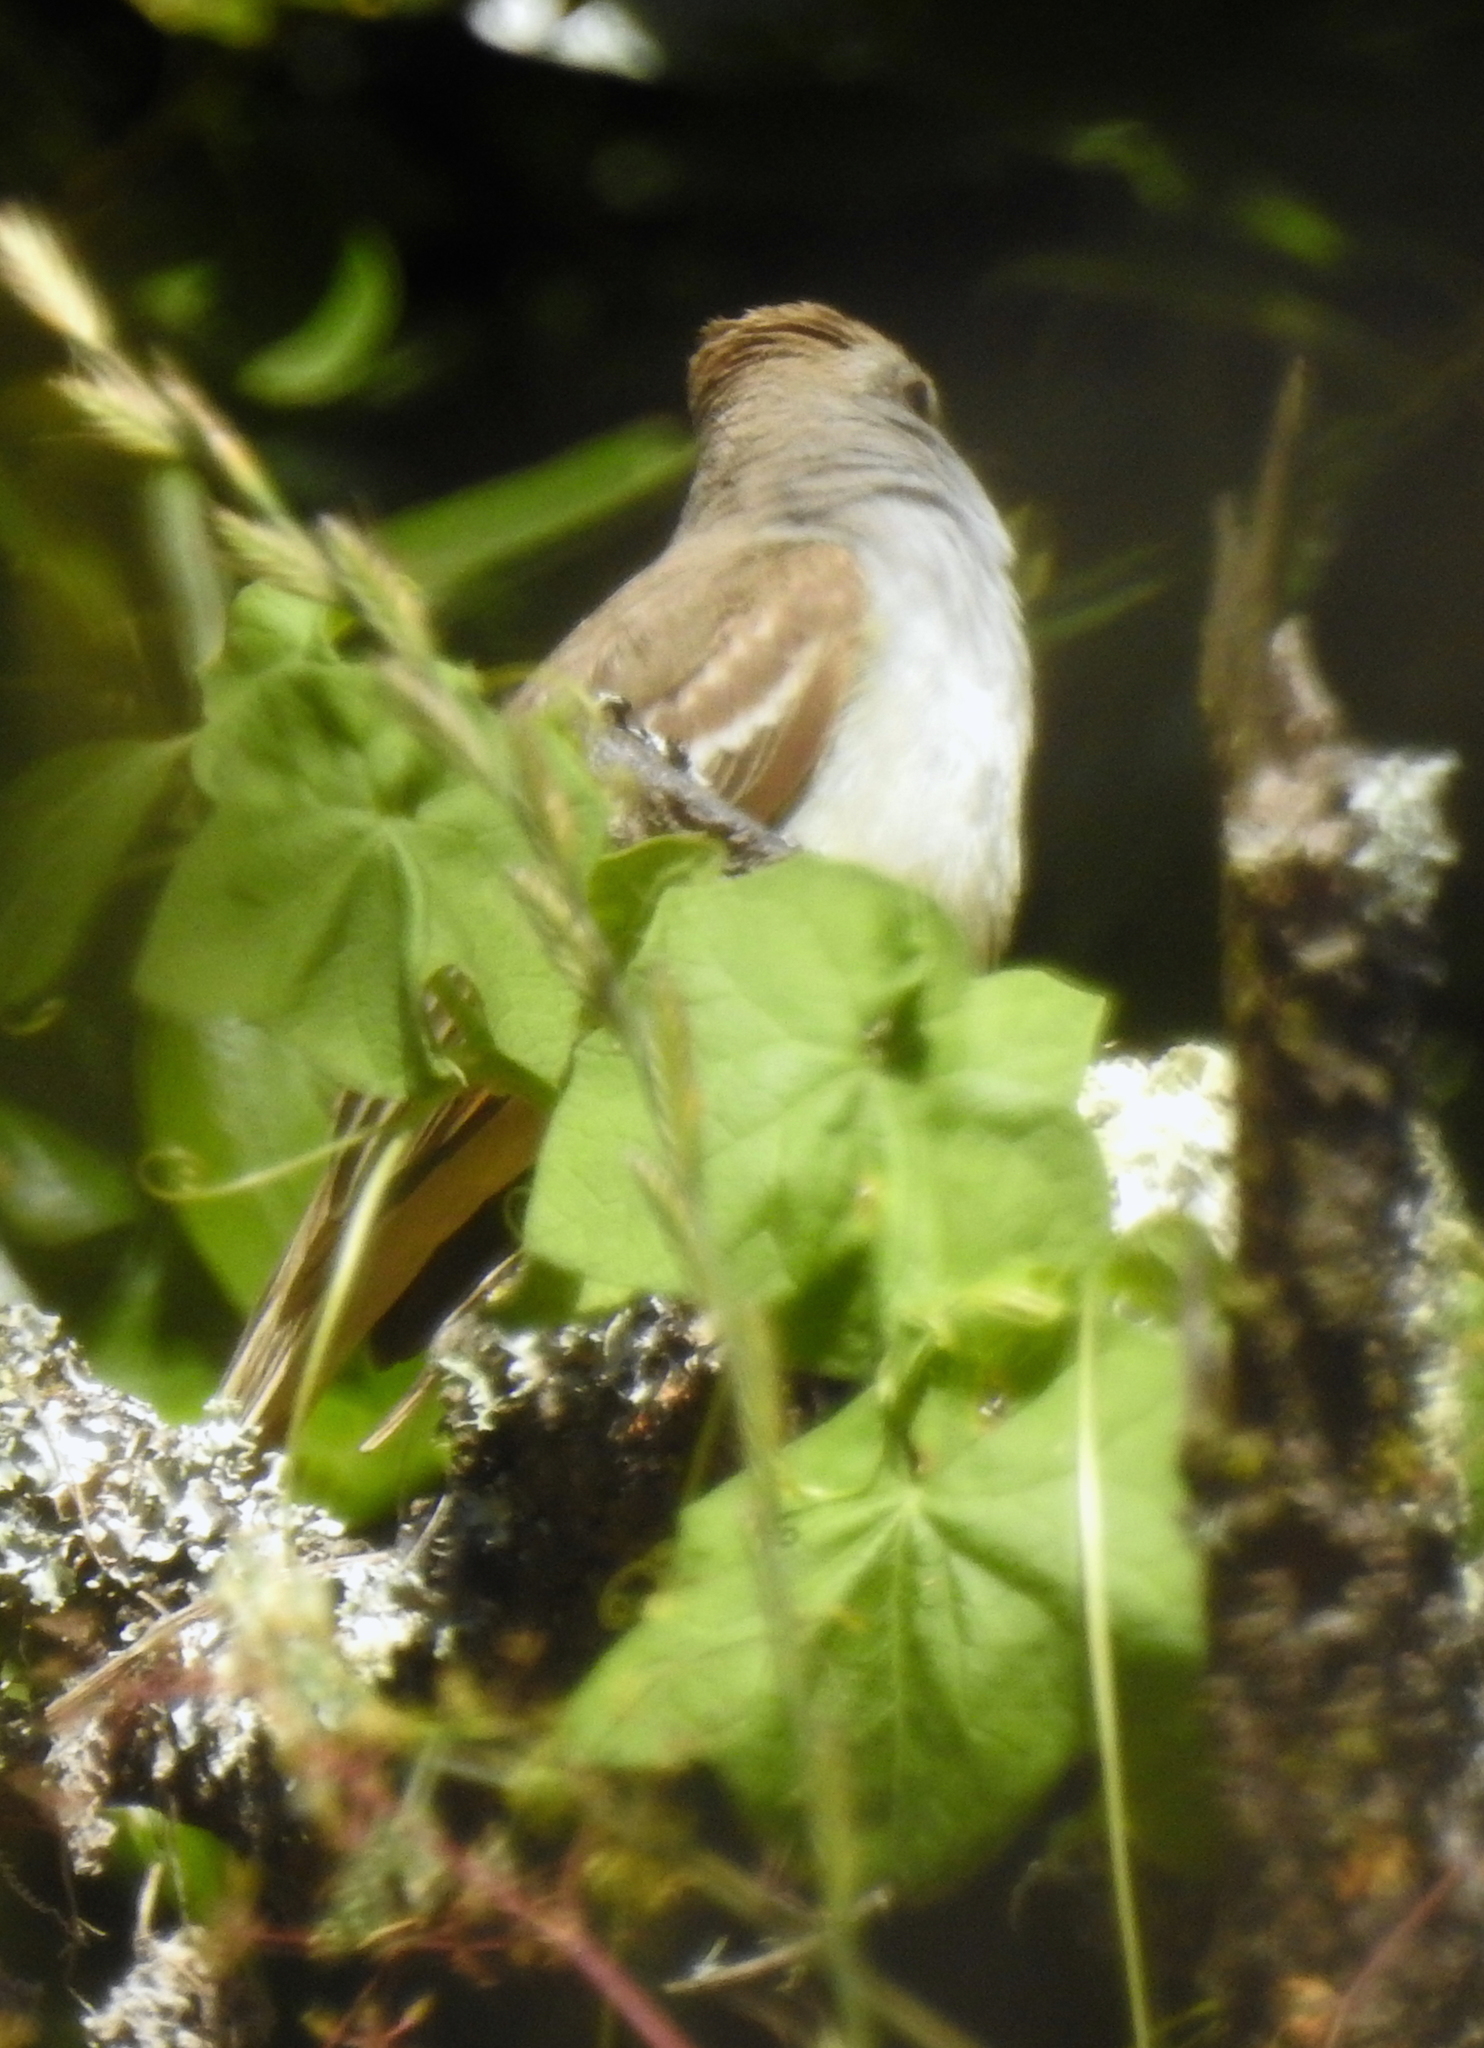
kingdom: Animalia
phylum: Chordata
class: Aves
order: Passeriformes
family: Tyrannidae
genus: Myiarchus
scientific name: Myiarchus cinerascens
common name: Ash-throated flycatcher
